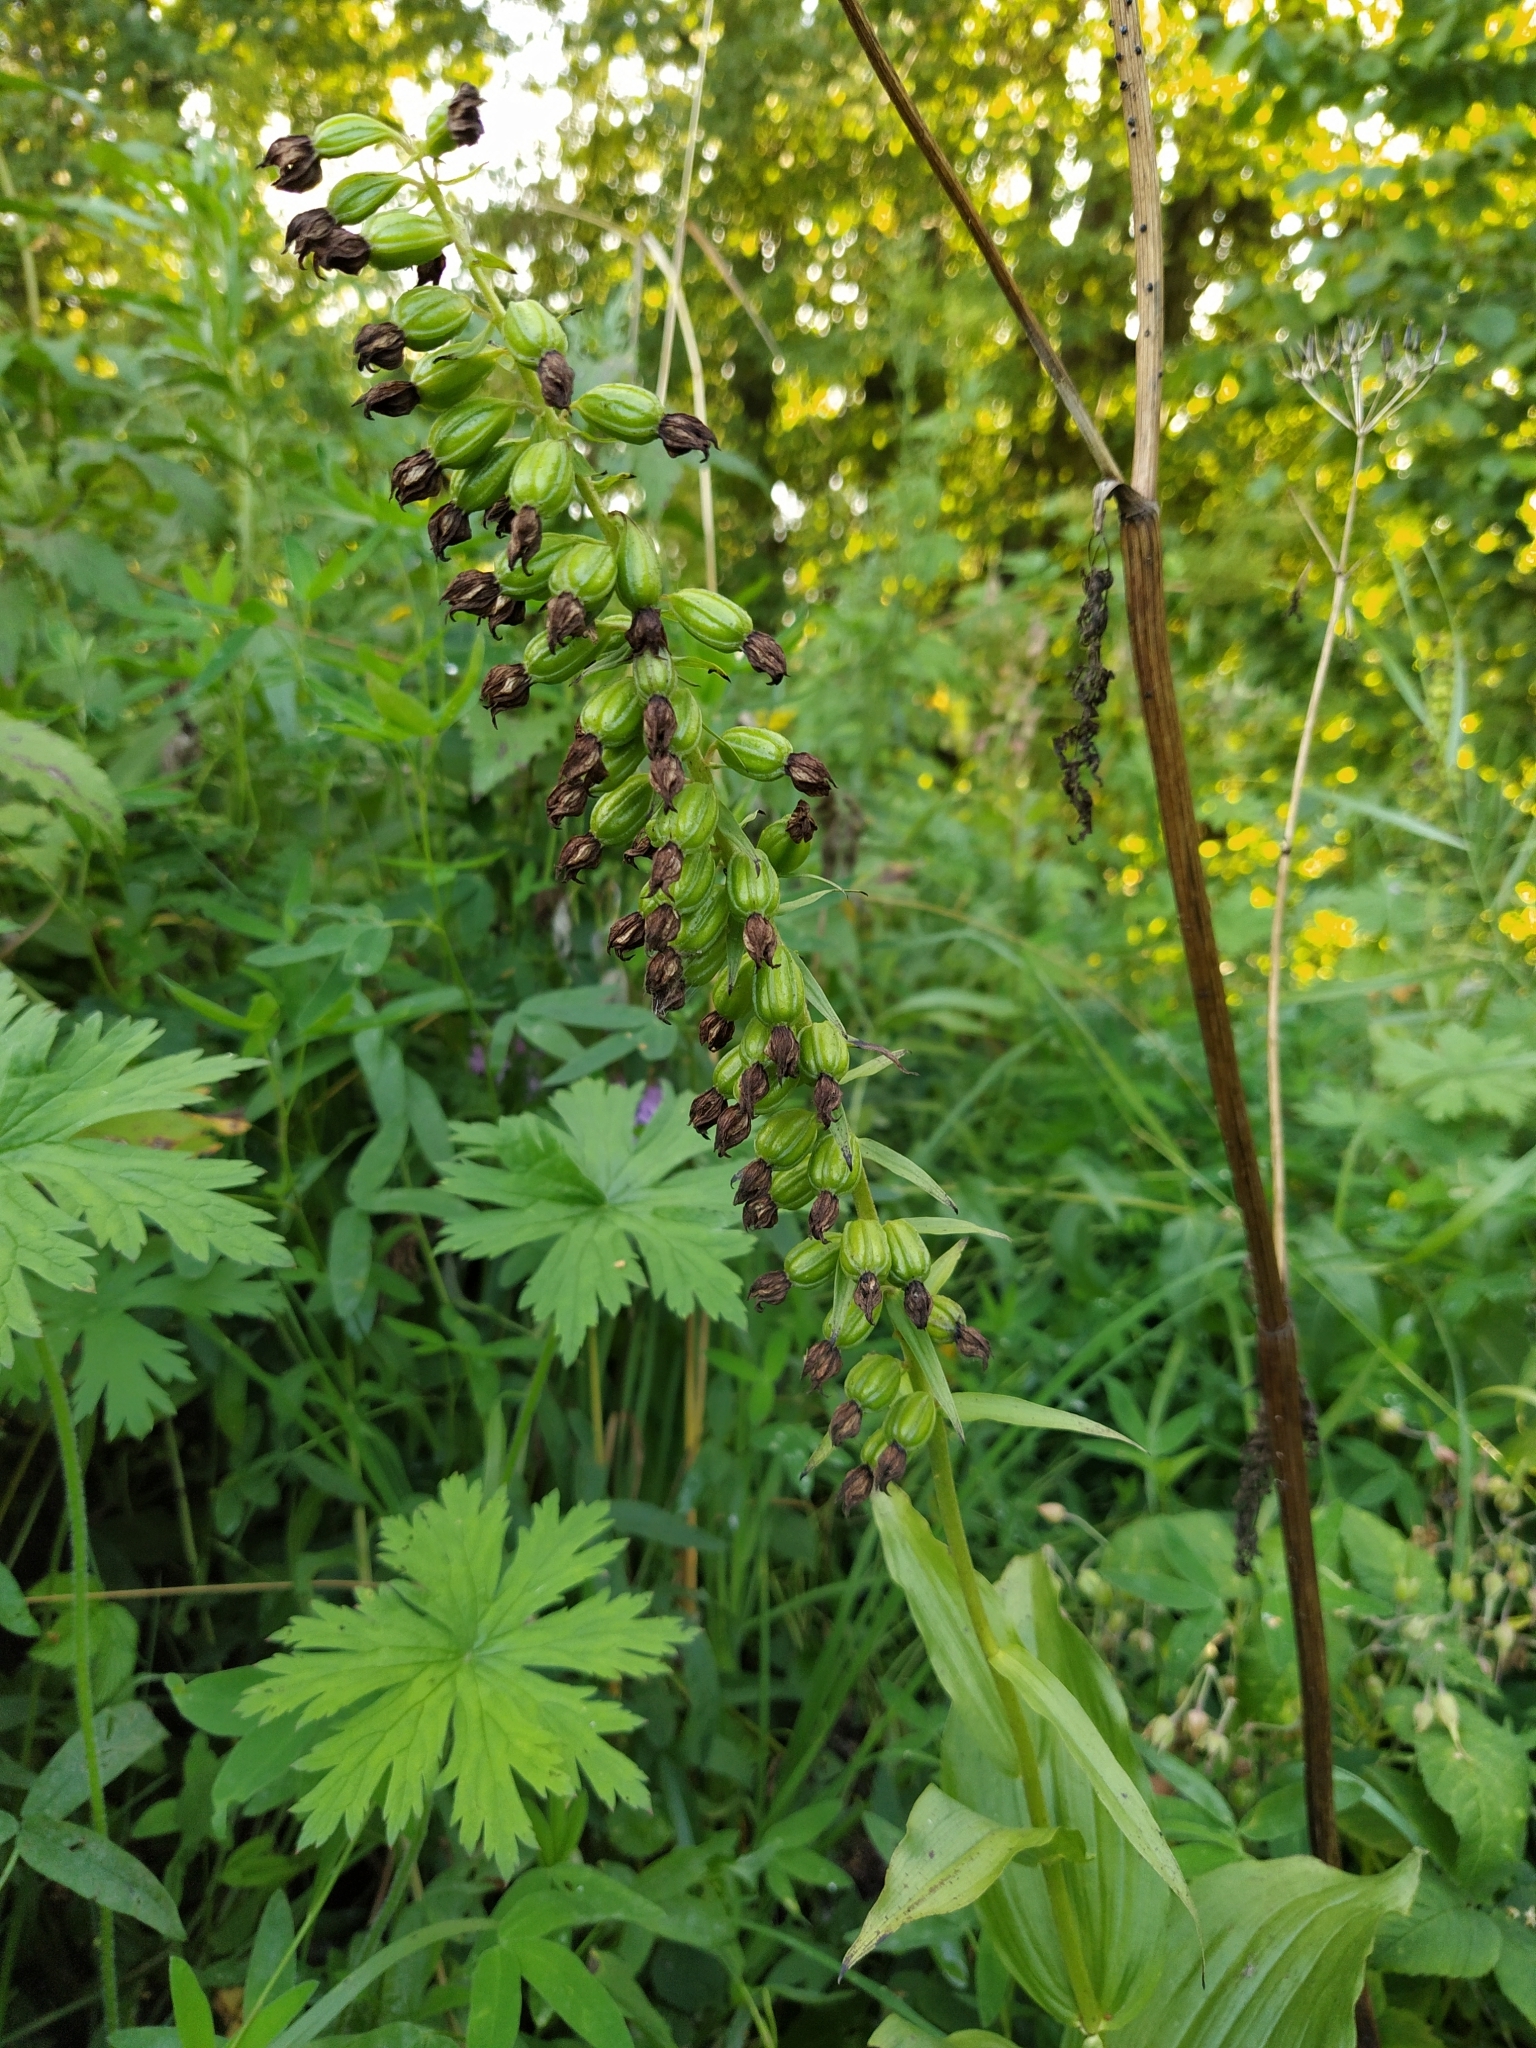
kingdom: Plantae
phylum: Tracheophyta
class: Liliopsida
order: Asparagales
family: Orchidaceae
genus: Epipactis
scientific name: Epipactis helleborine
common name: Broad-leaved helleborine
